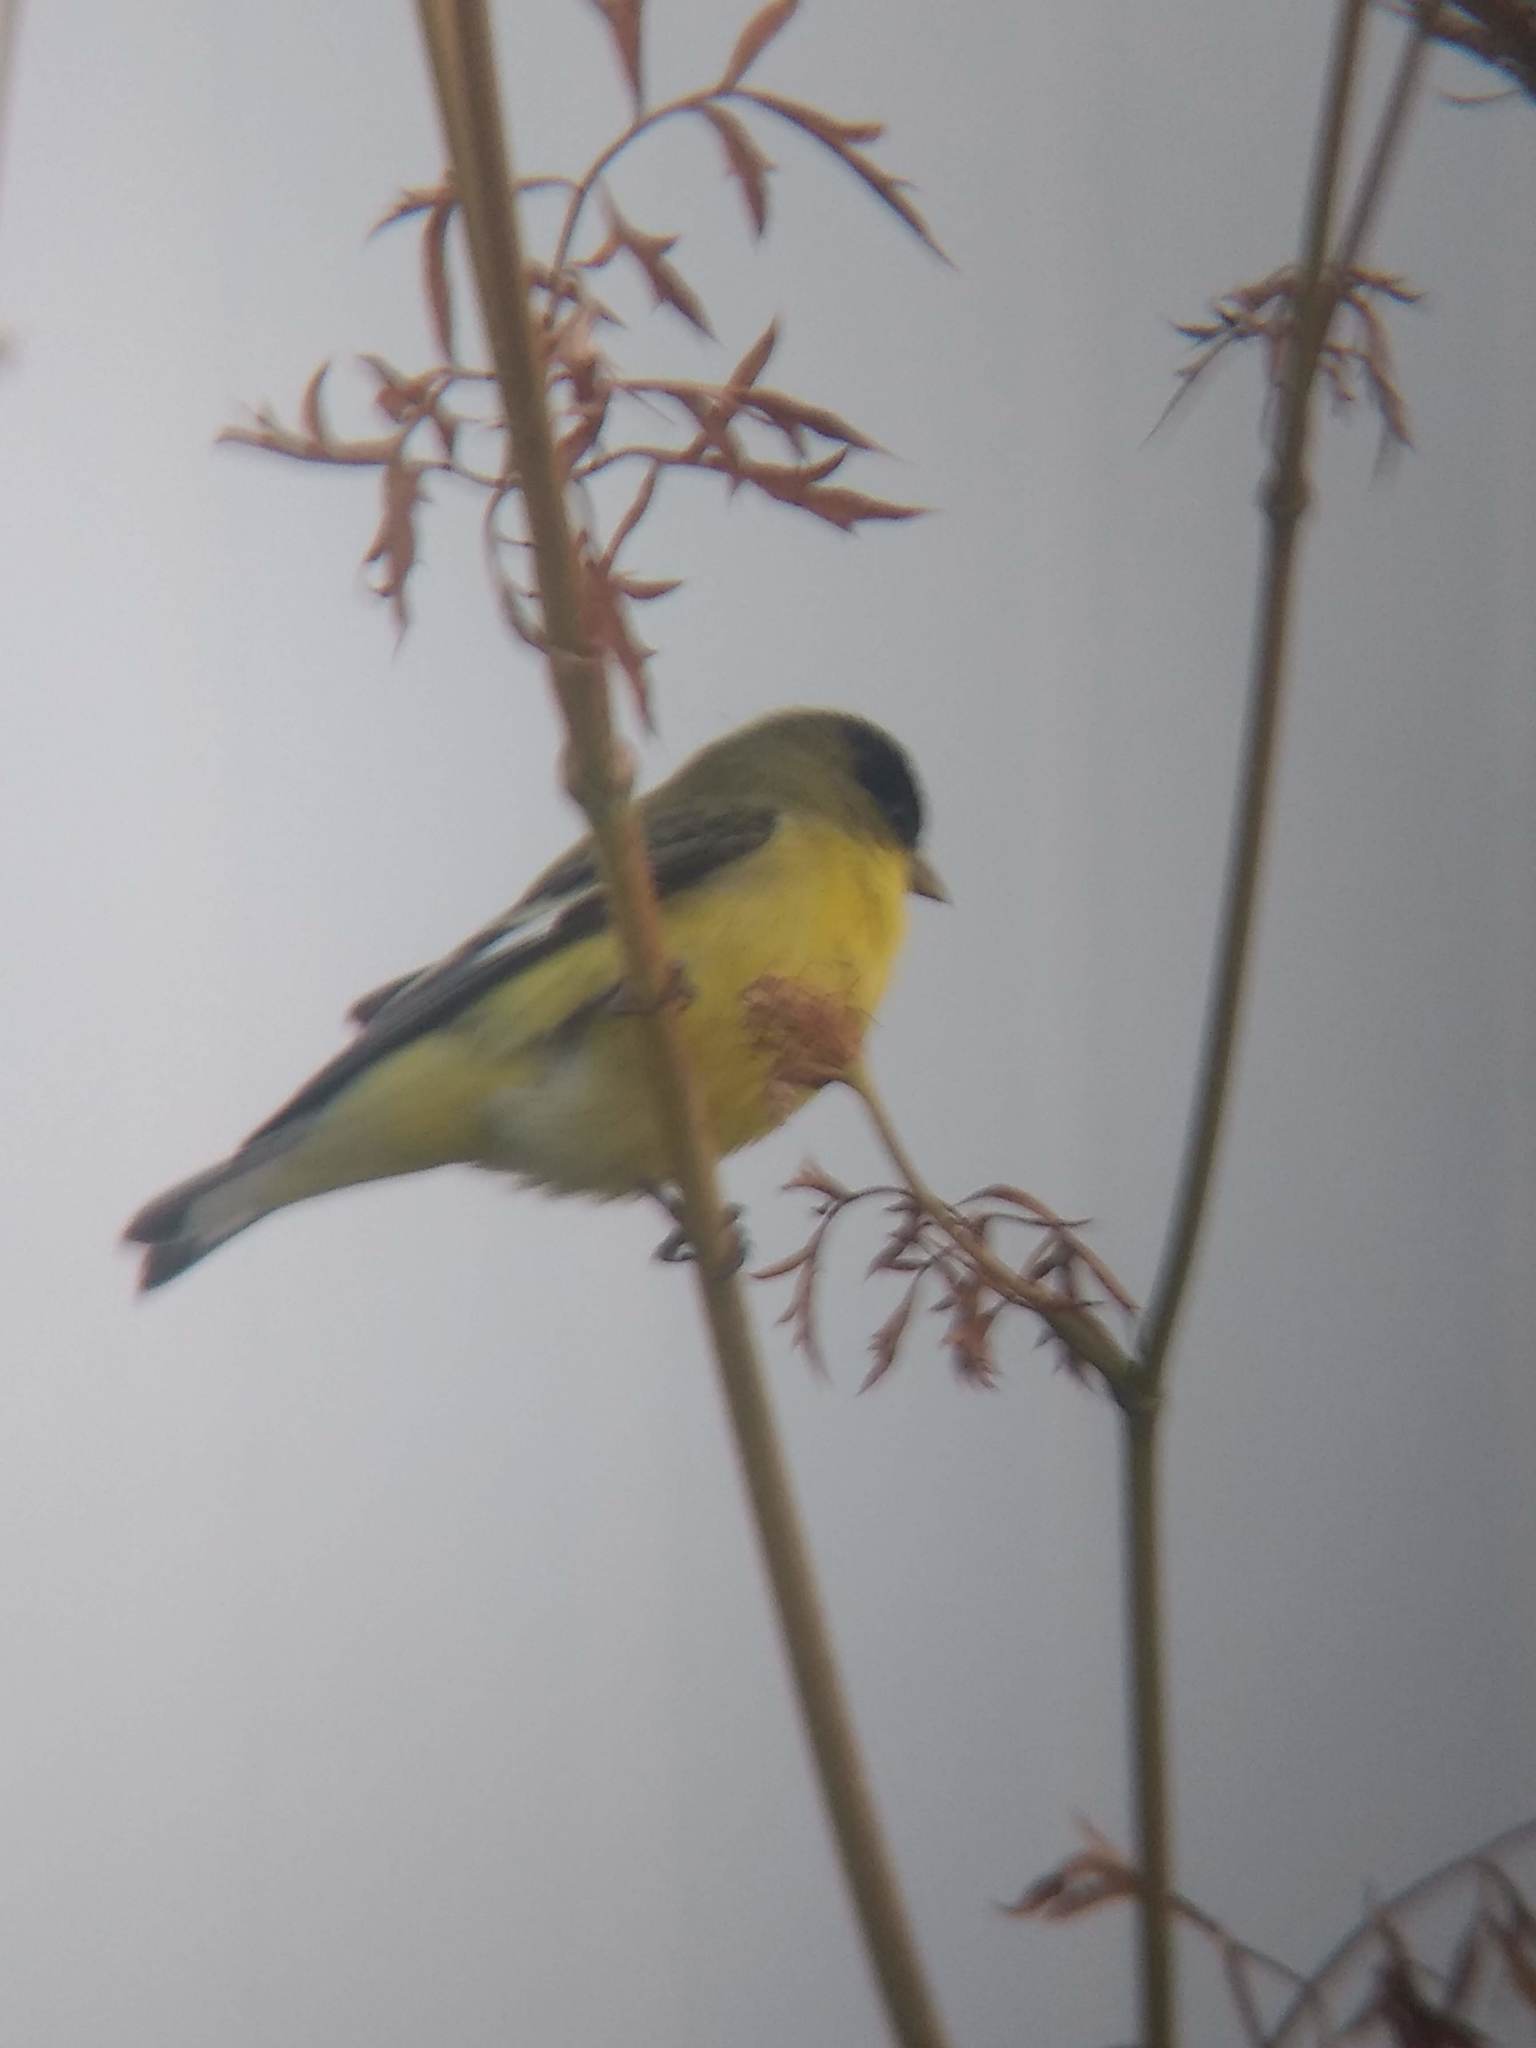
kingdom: Animalia
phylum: Chordata
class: Aves
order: Passeriformes
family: Fringillidae
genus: Spinus
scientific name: Spinus psaltria
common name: Lesser goldfinch
